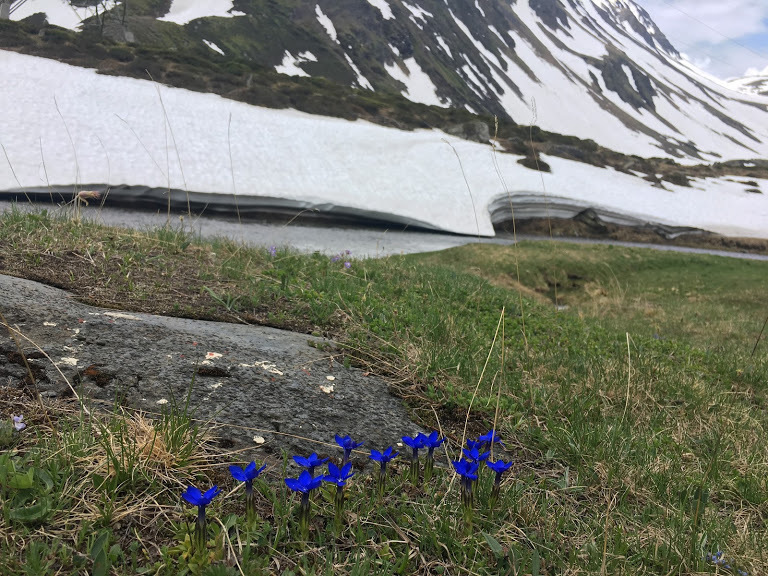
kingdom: Plantae
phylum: Tracheophyta
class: Magnoliopsida
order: Gentianales
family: Gentianaceae
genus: Gentiana
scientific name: Gentiana verna
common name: Spring gentian
